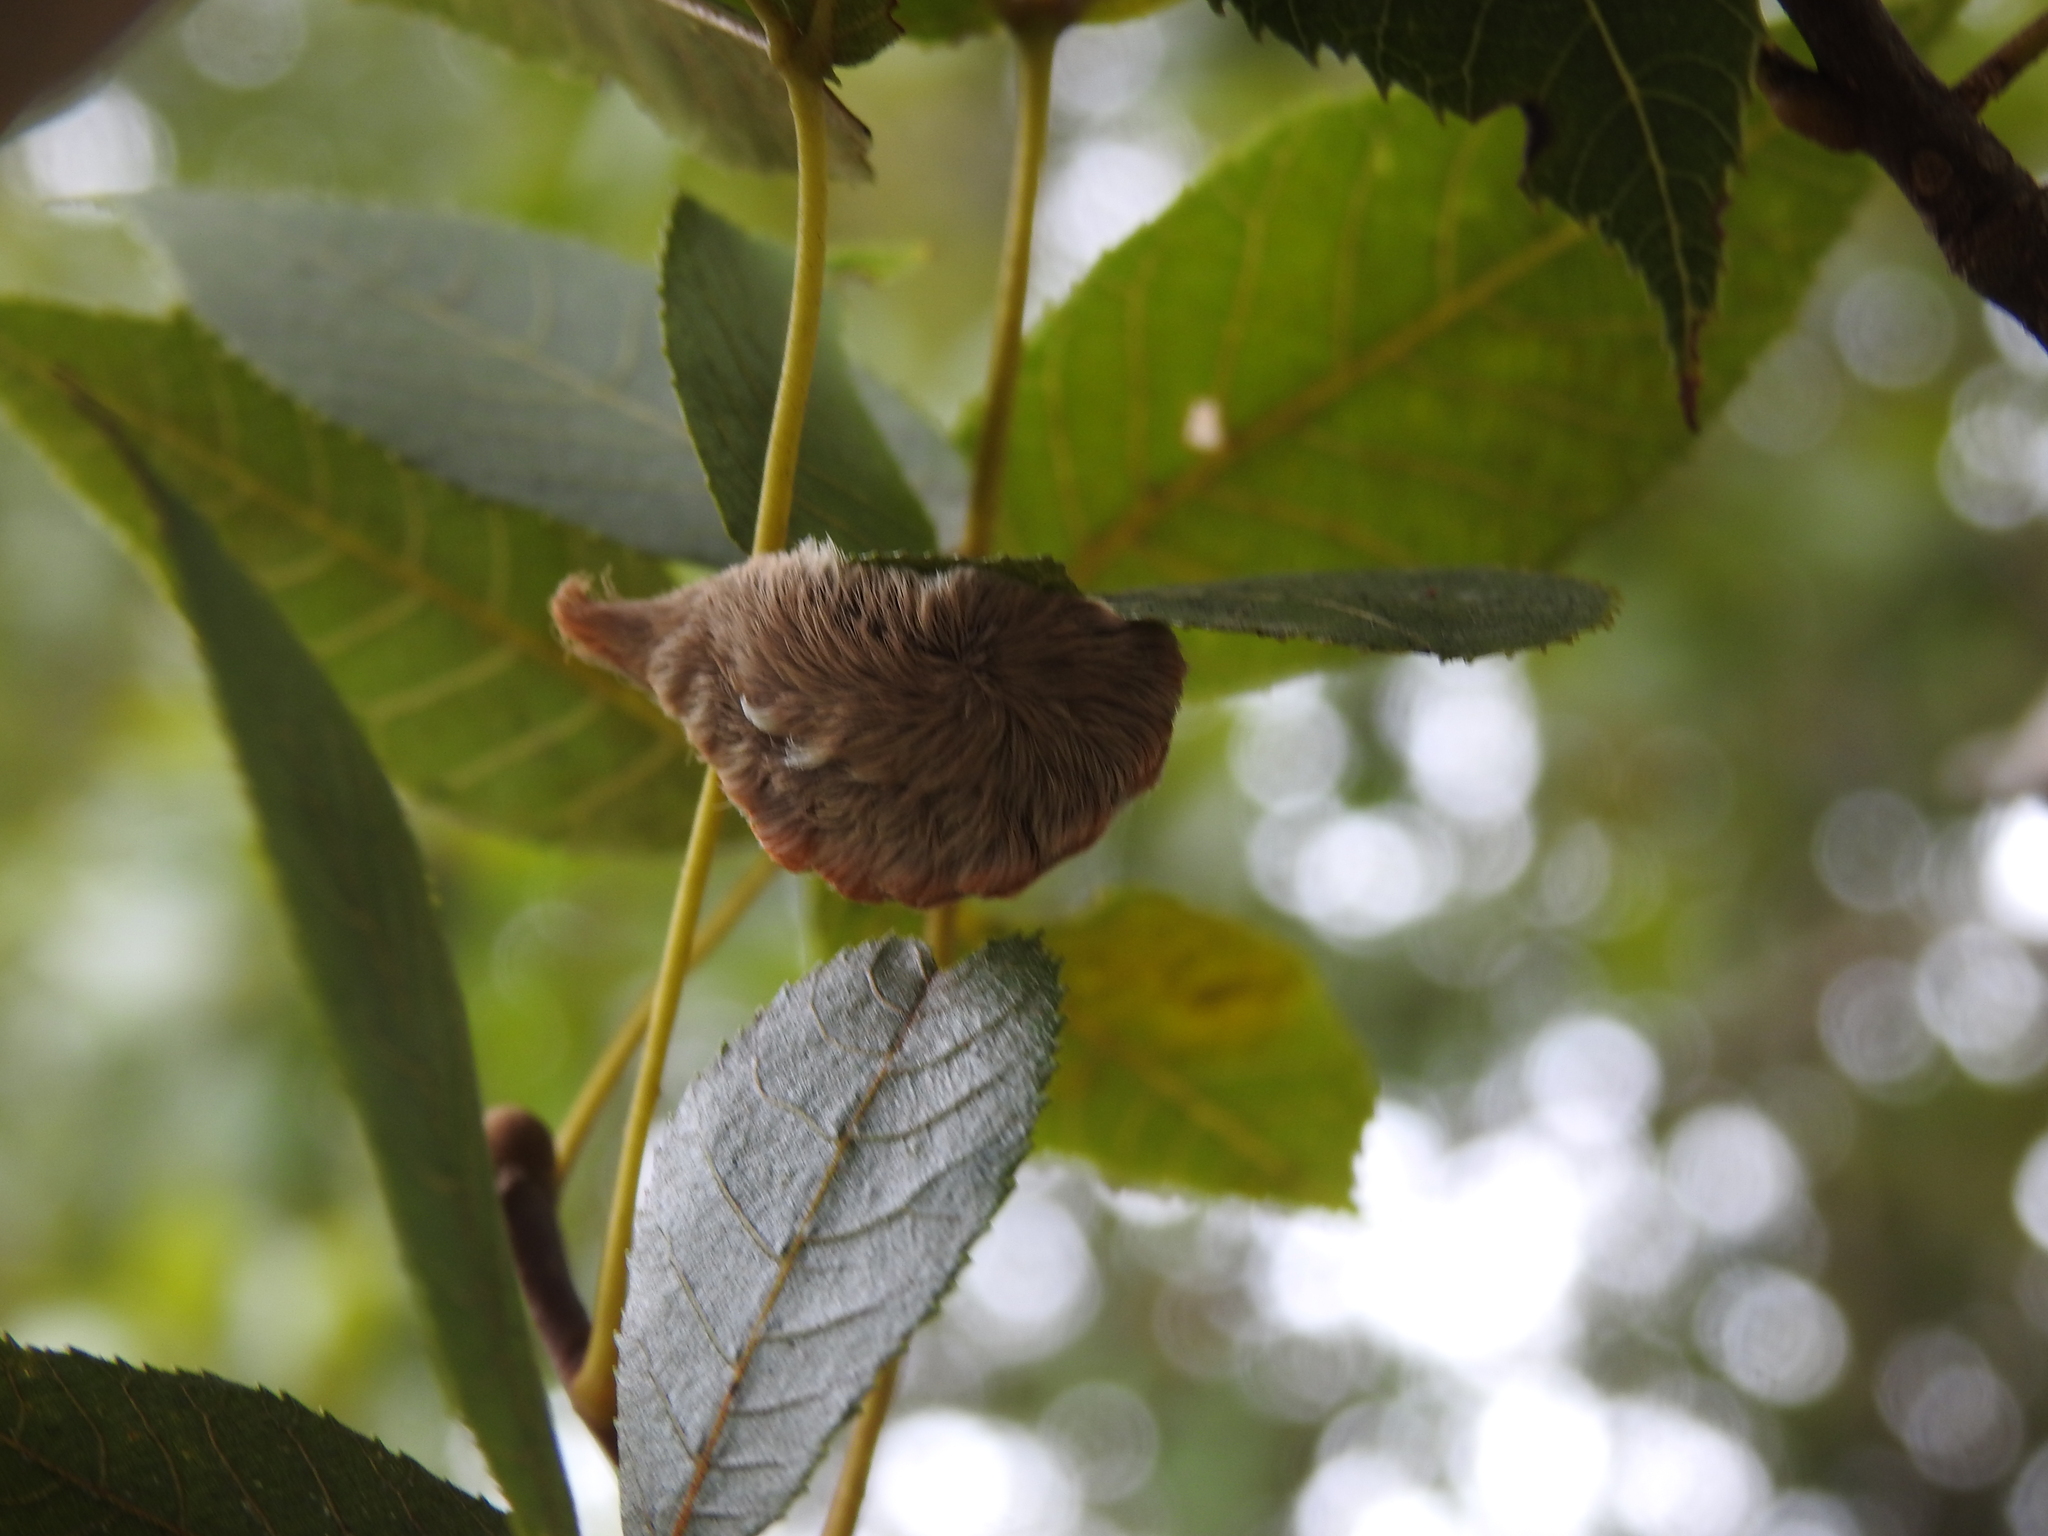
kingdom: Animalia
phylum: Arthropoda
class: Insecta
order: Lepidoptera
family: Megalopygidae
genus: Megalopyge
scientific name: Megalopyge opercularis
